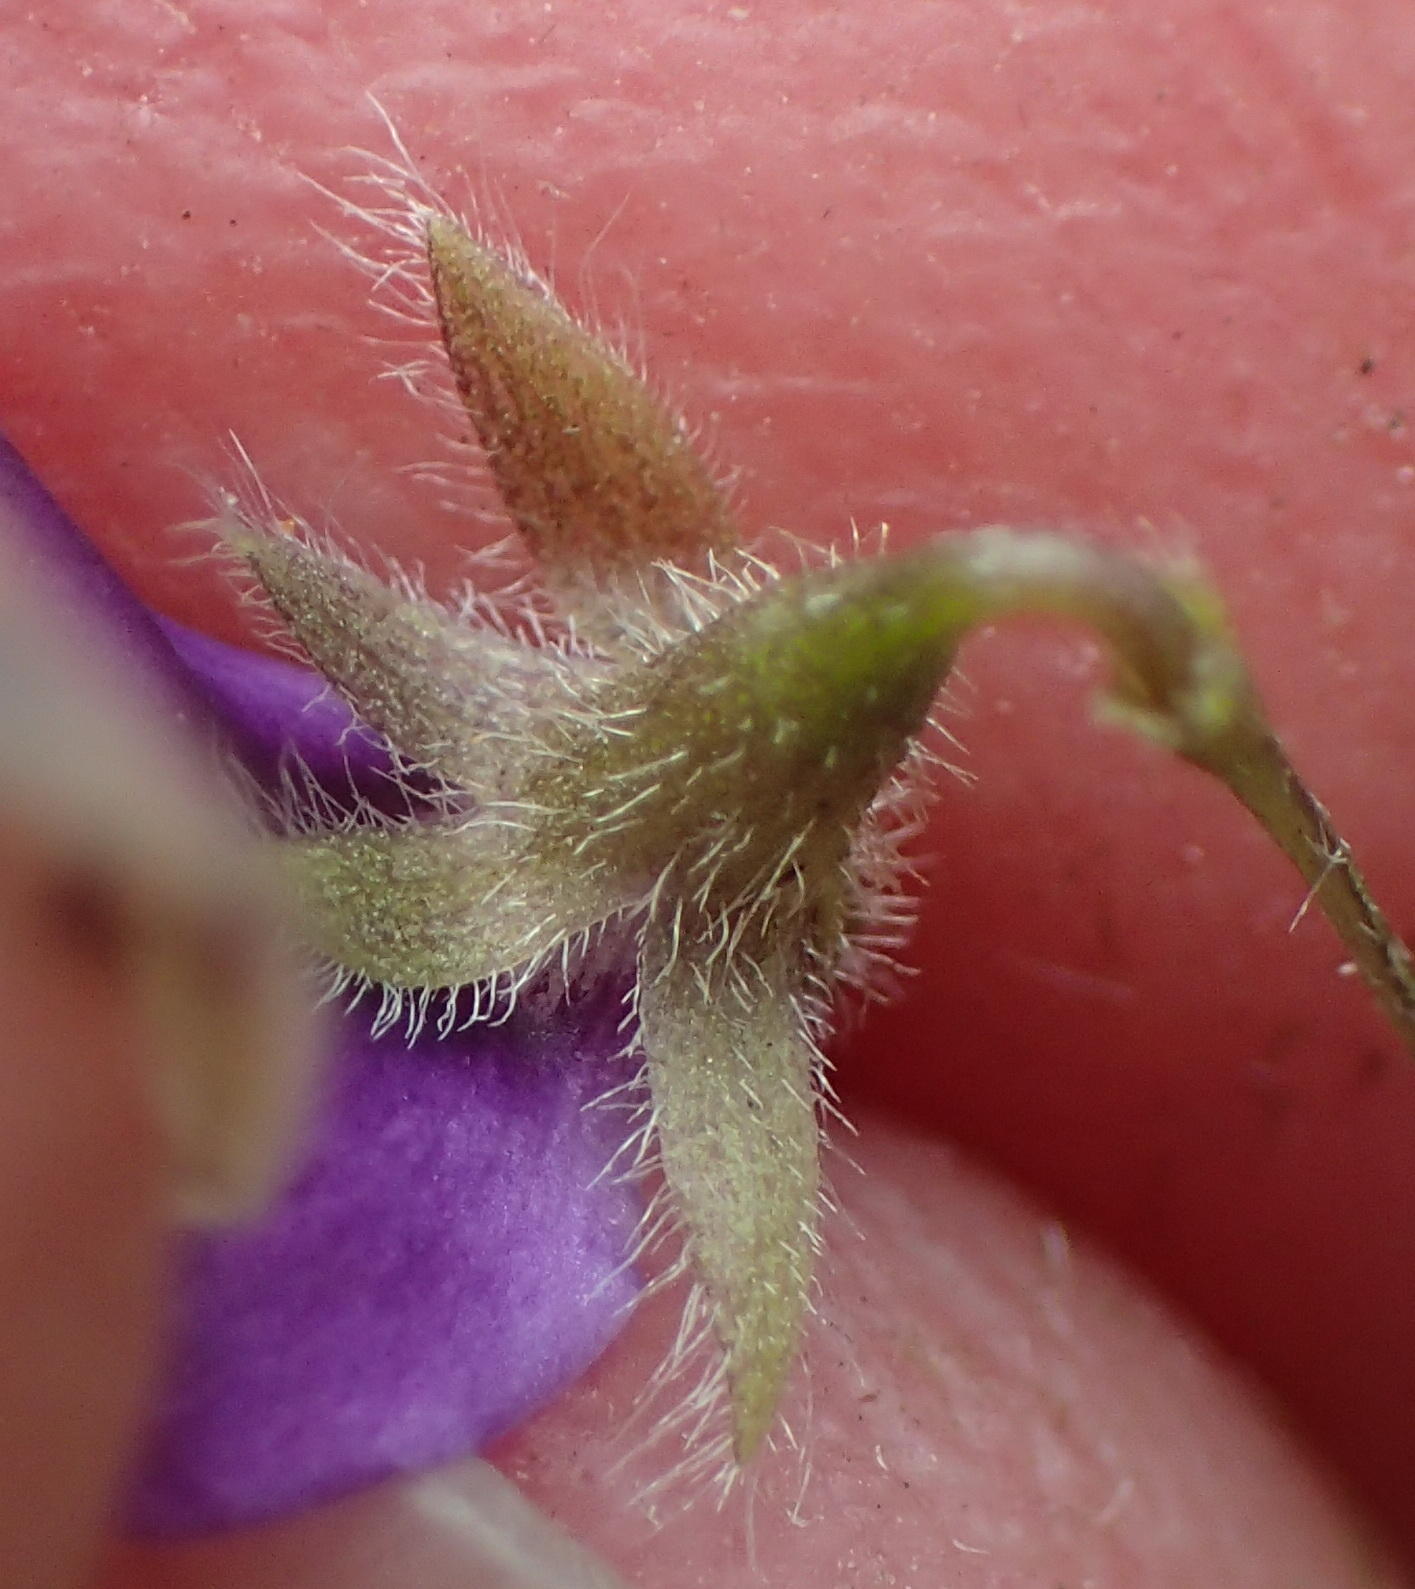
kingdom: Plantae
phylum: Tracheophyta
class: Magnoliopsida
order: Fabales
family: Fabaceae
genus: Psoralea
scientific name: Psoralea plauta
